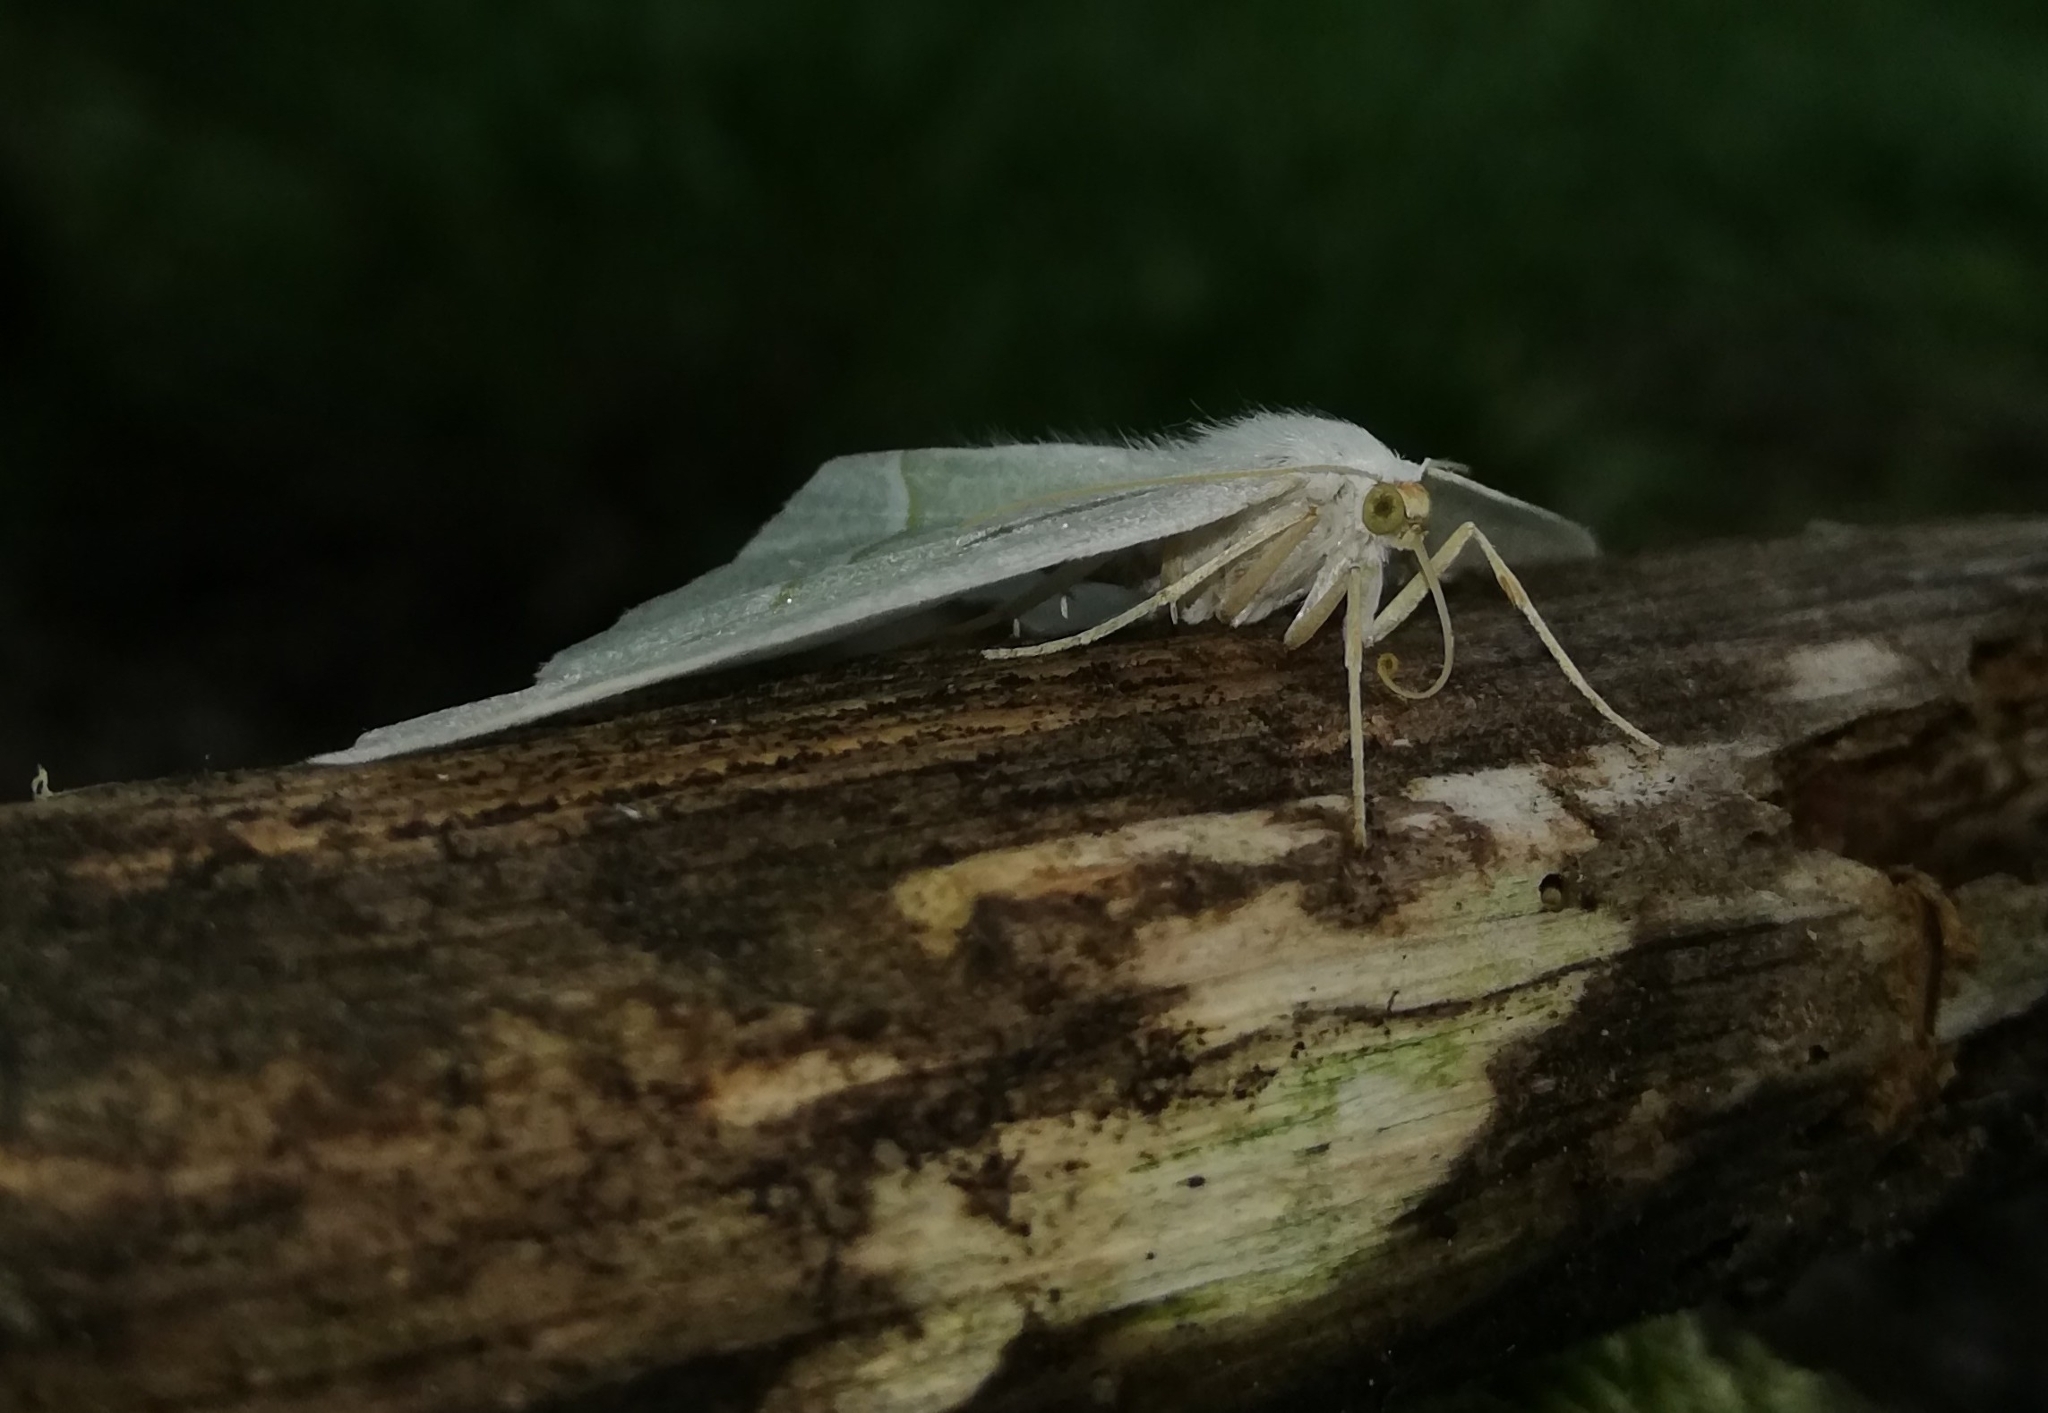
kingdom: Animalia
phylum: Arthropoda
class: Insecta
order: Lepidoptera
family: Geometridae
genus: Campaea
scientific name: Campaea margaritaria
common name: Light emerald
